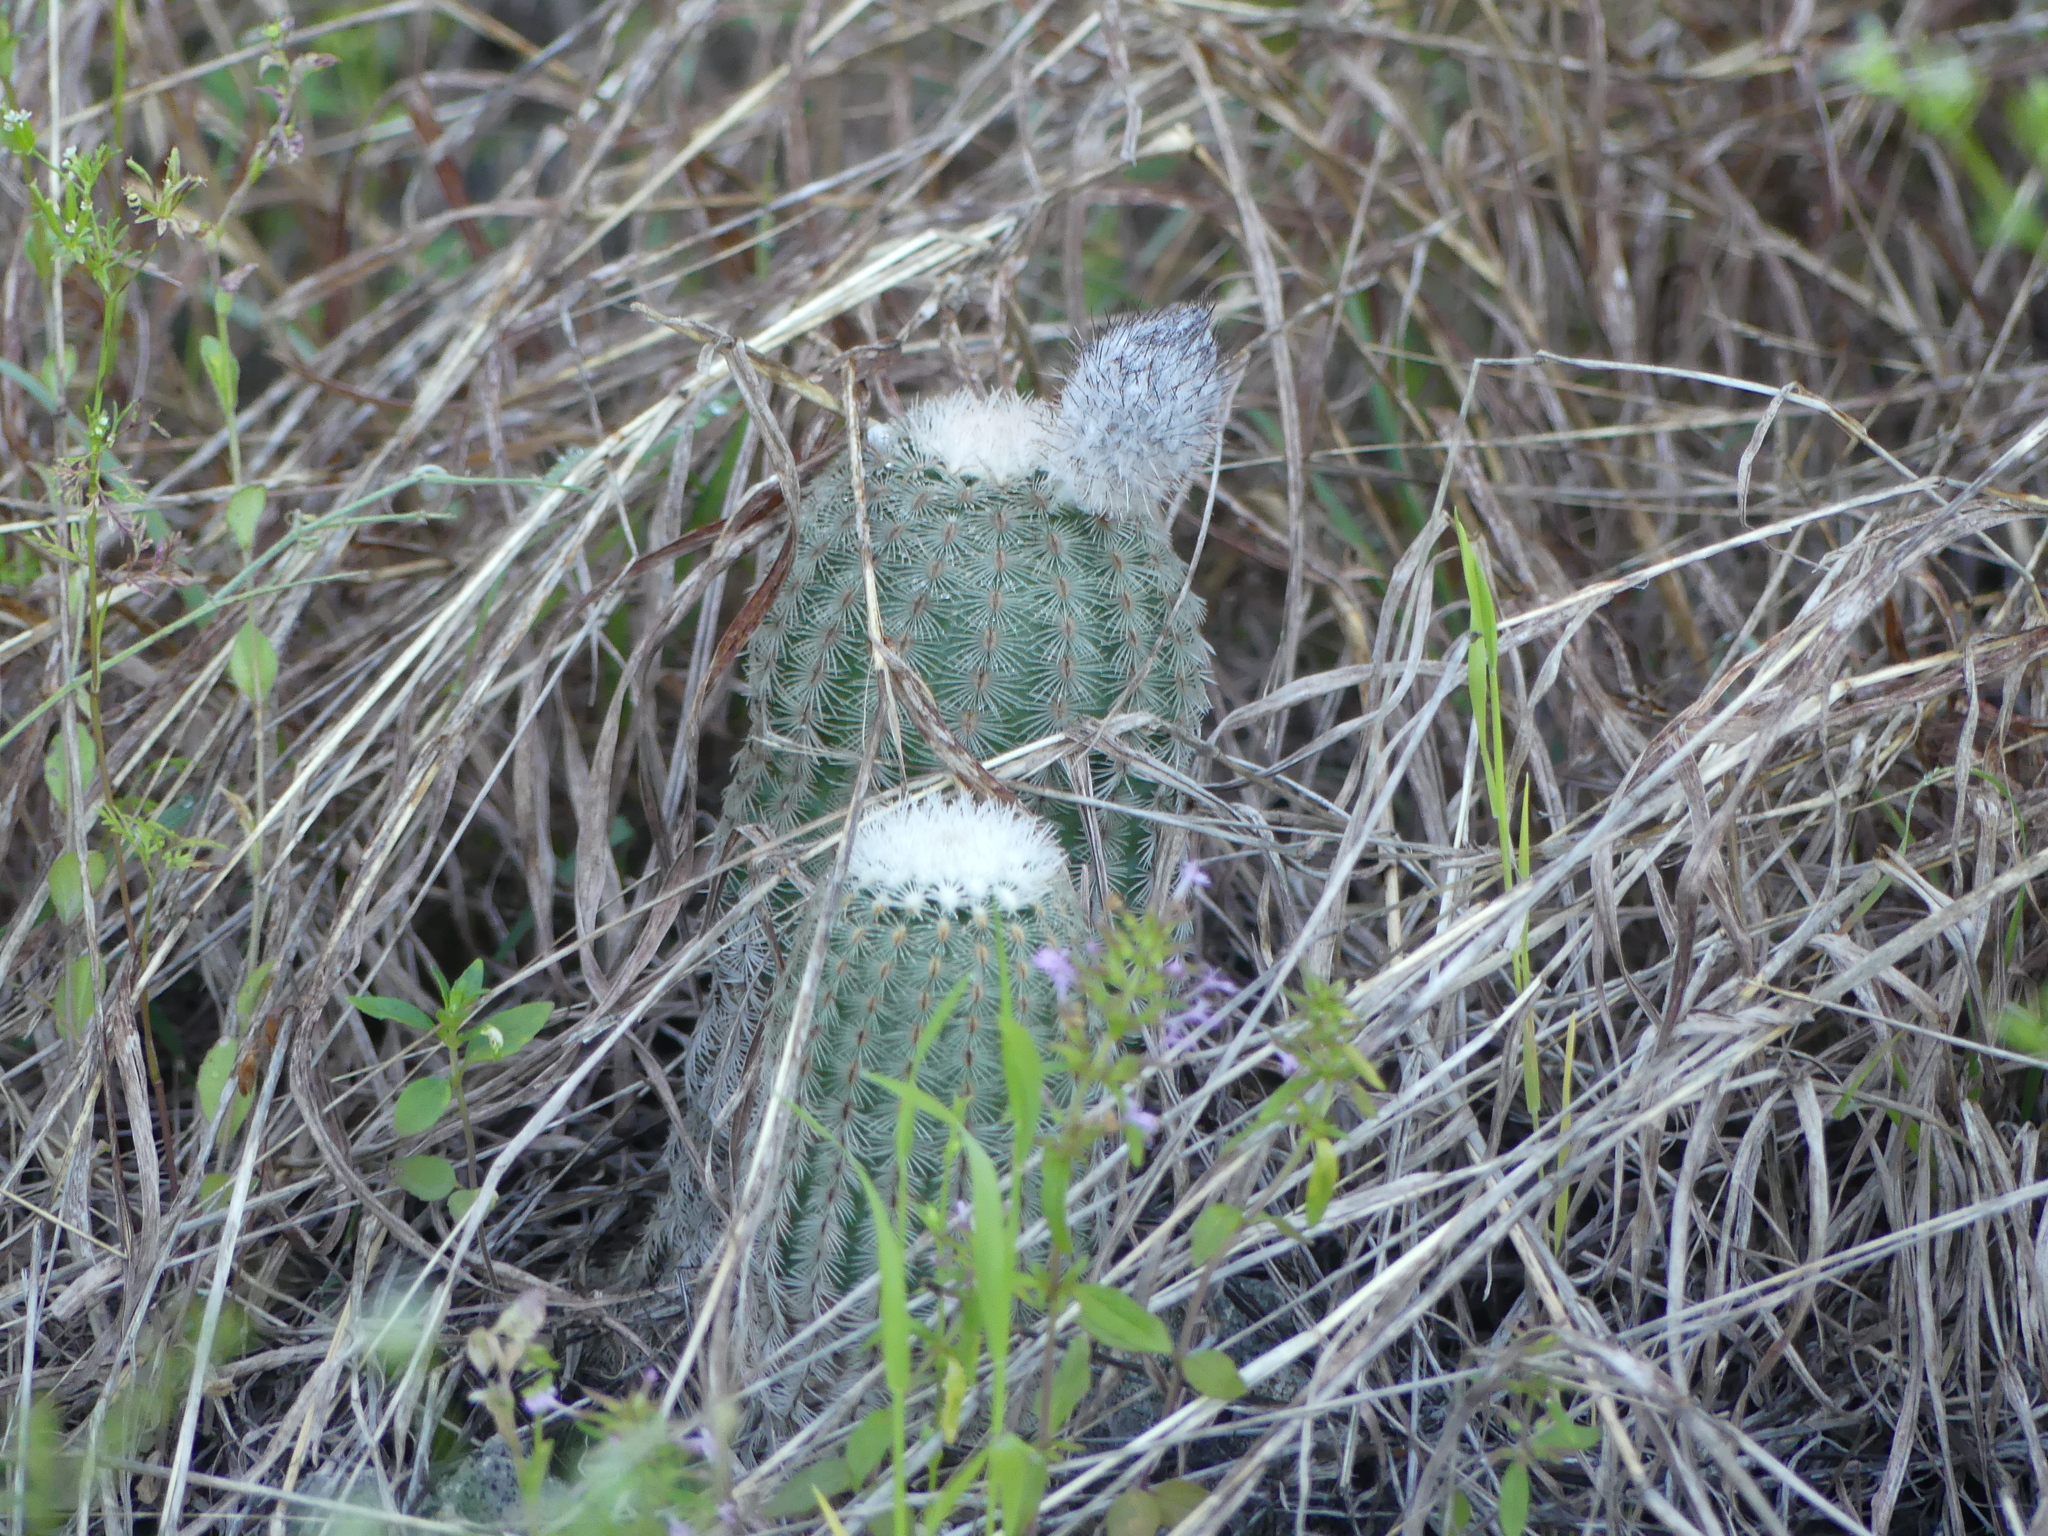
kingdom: Plantae
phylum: Tracheophyta
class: Magnoliopsida
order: Caryophyllales
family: Cactaceae
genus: Echinocereus
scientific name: Echinocereus reichenbachii
